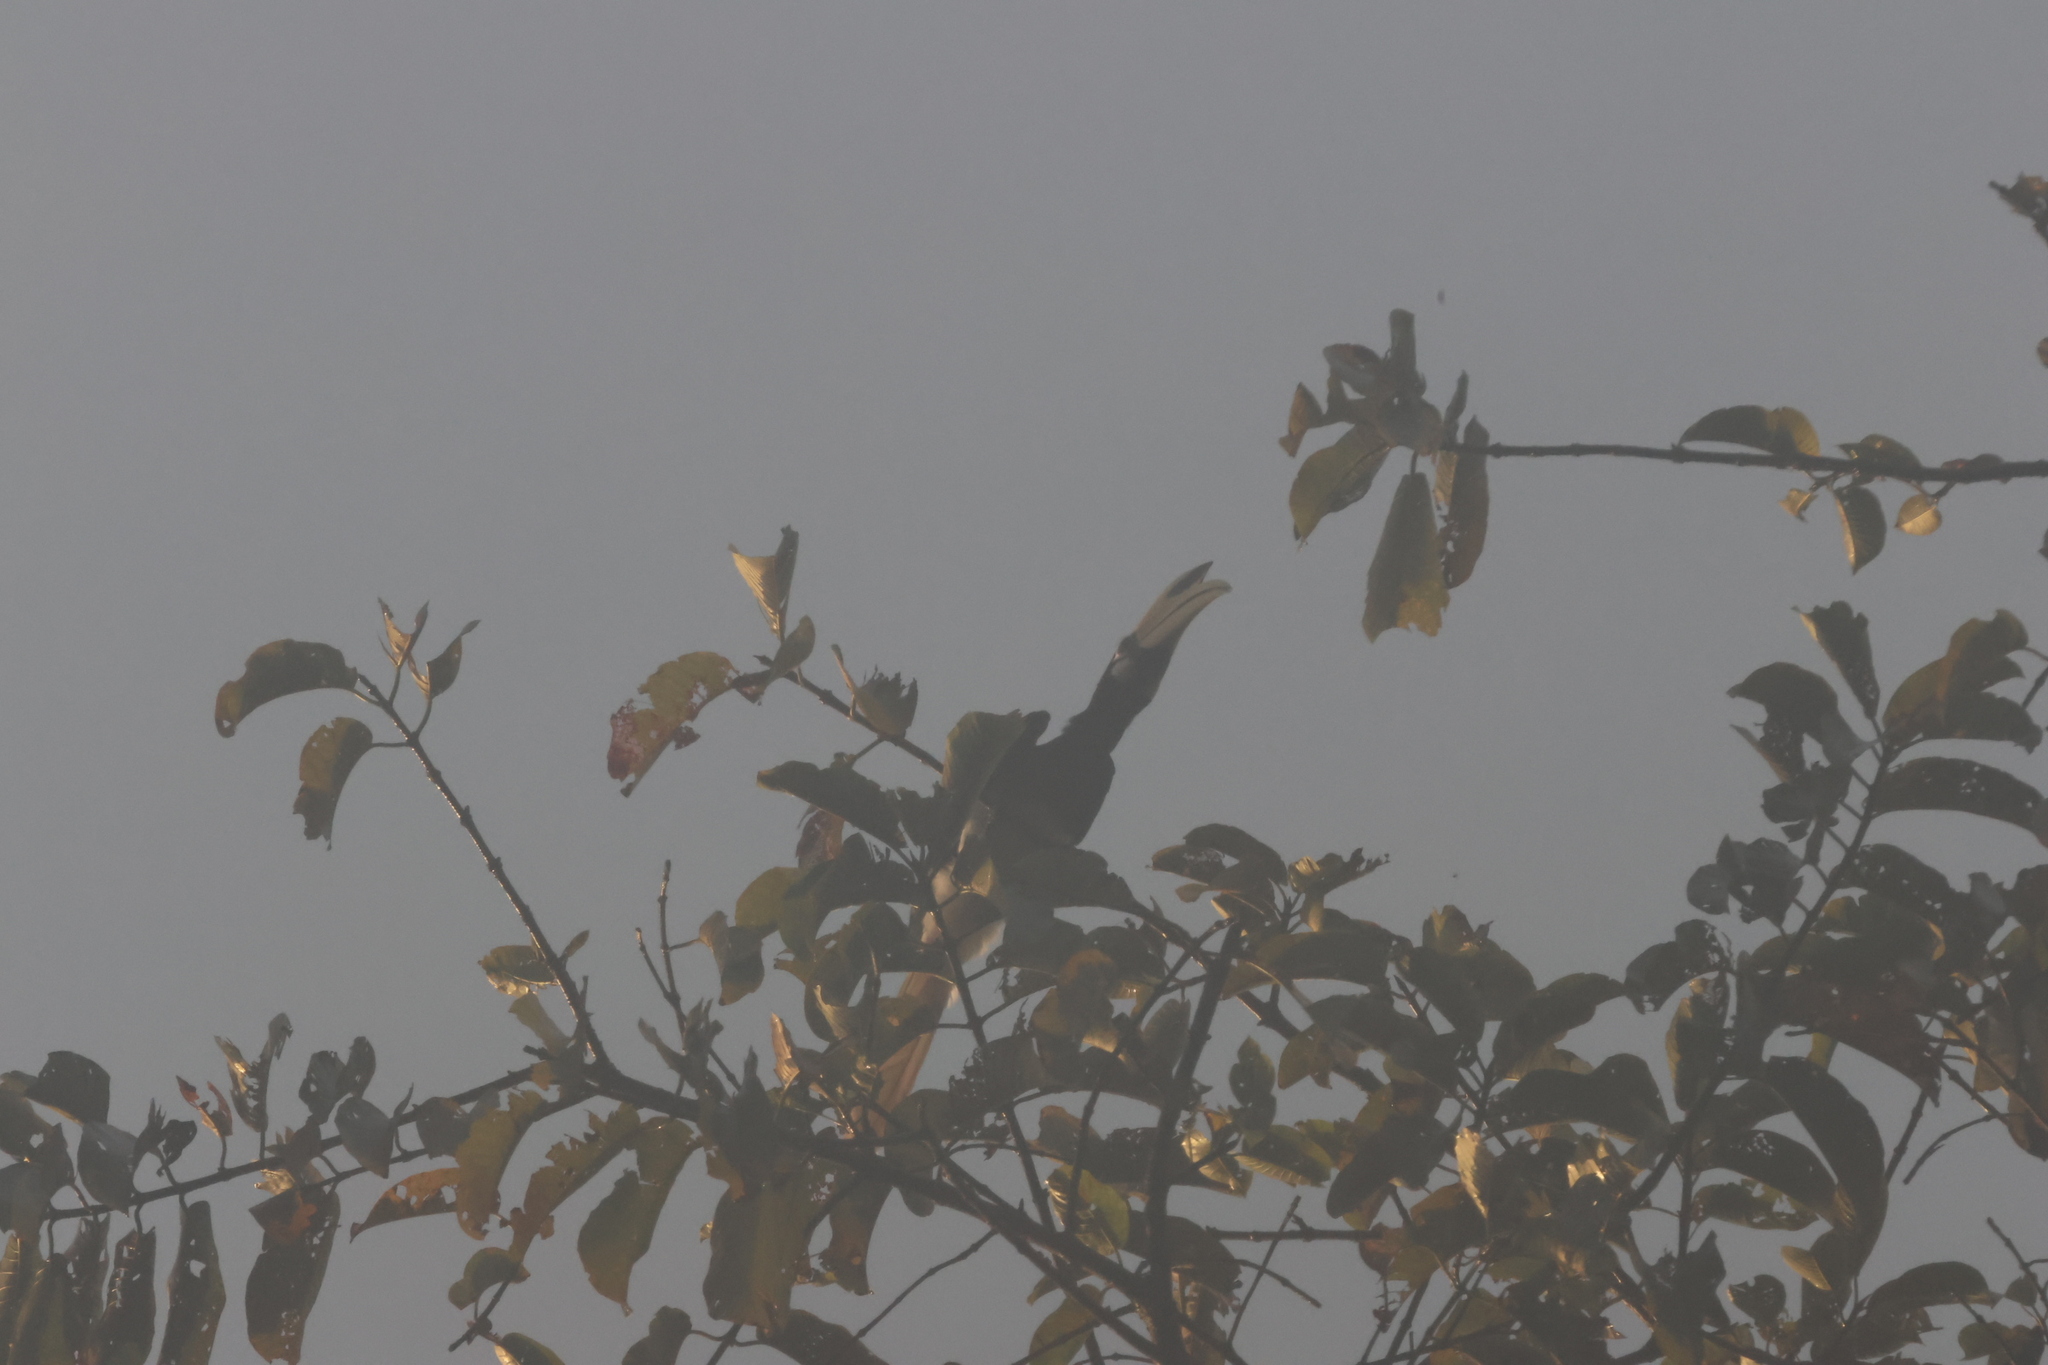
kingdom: Animalia
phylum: Chordata
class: Aves
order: Bucerotiformes
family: Bucerotidae
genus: Anthracoceros
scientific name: Anthracoceros albirostris
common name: Oriental pied-hornbill
